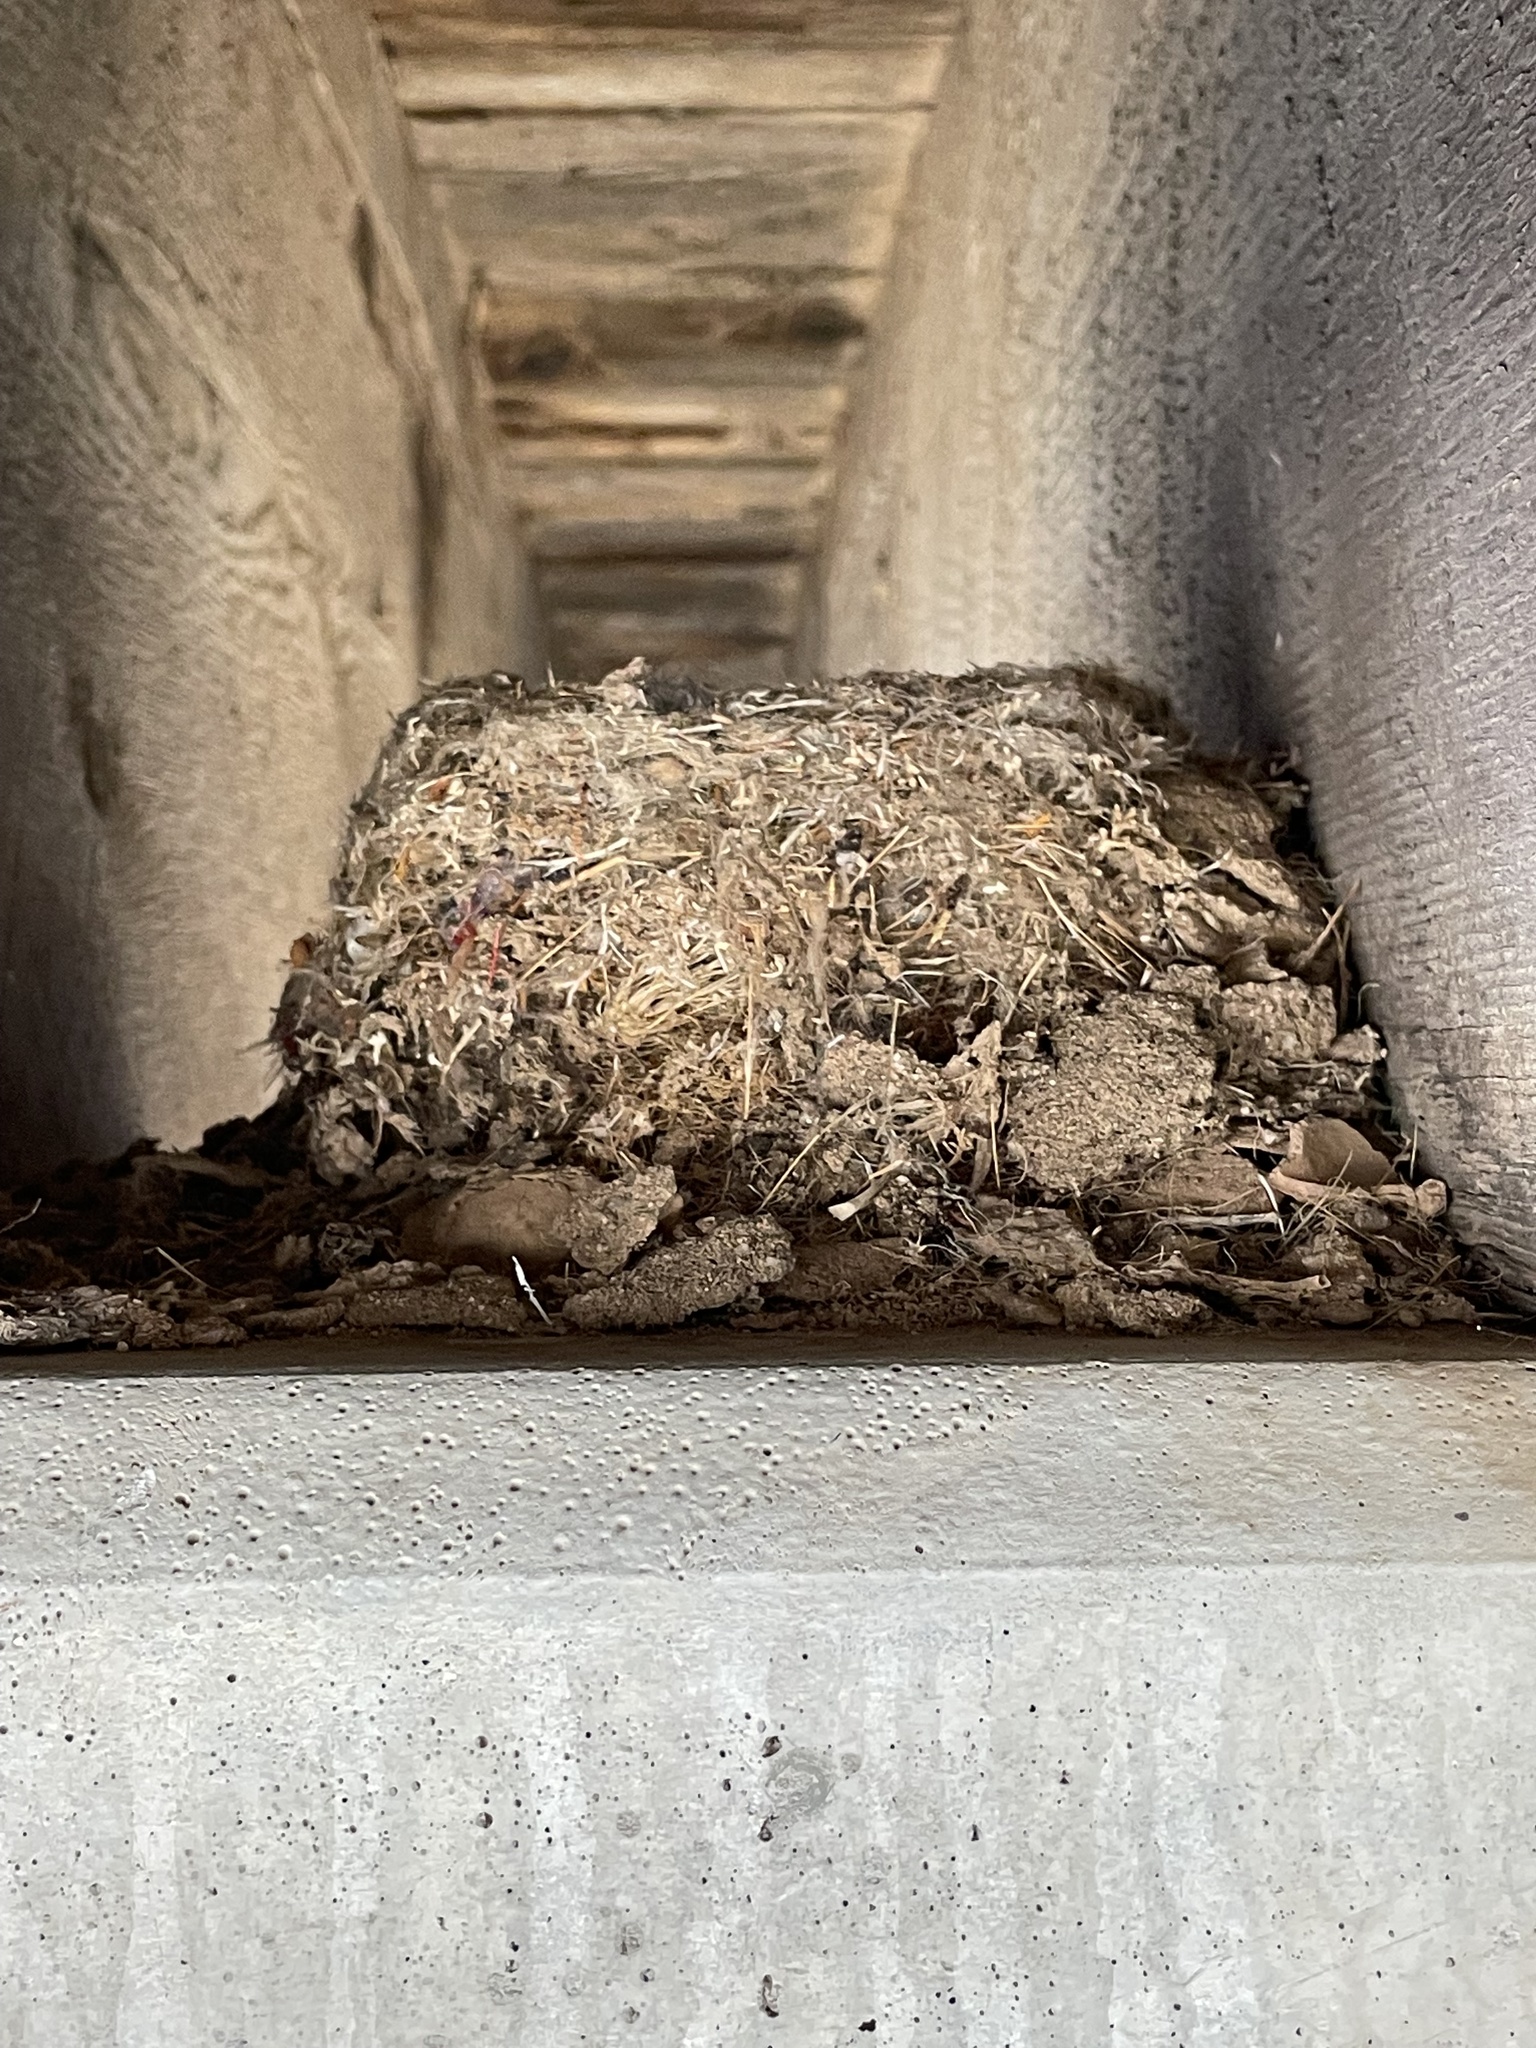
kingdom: Animalia
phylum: Chordata
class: Aves
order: Passeriformes
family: Tyrannidae
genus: Sayornis
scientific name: Sayornis saya
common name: Say's phoebe
